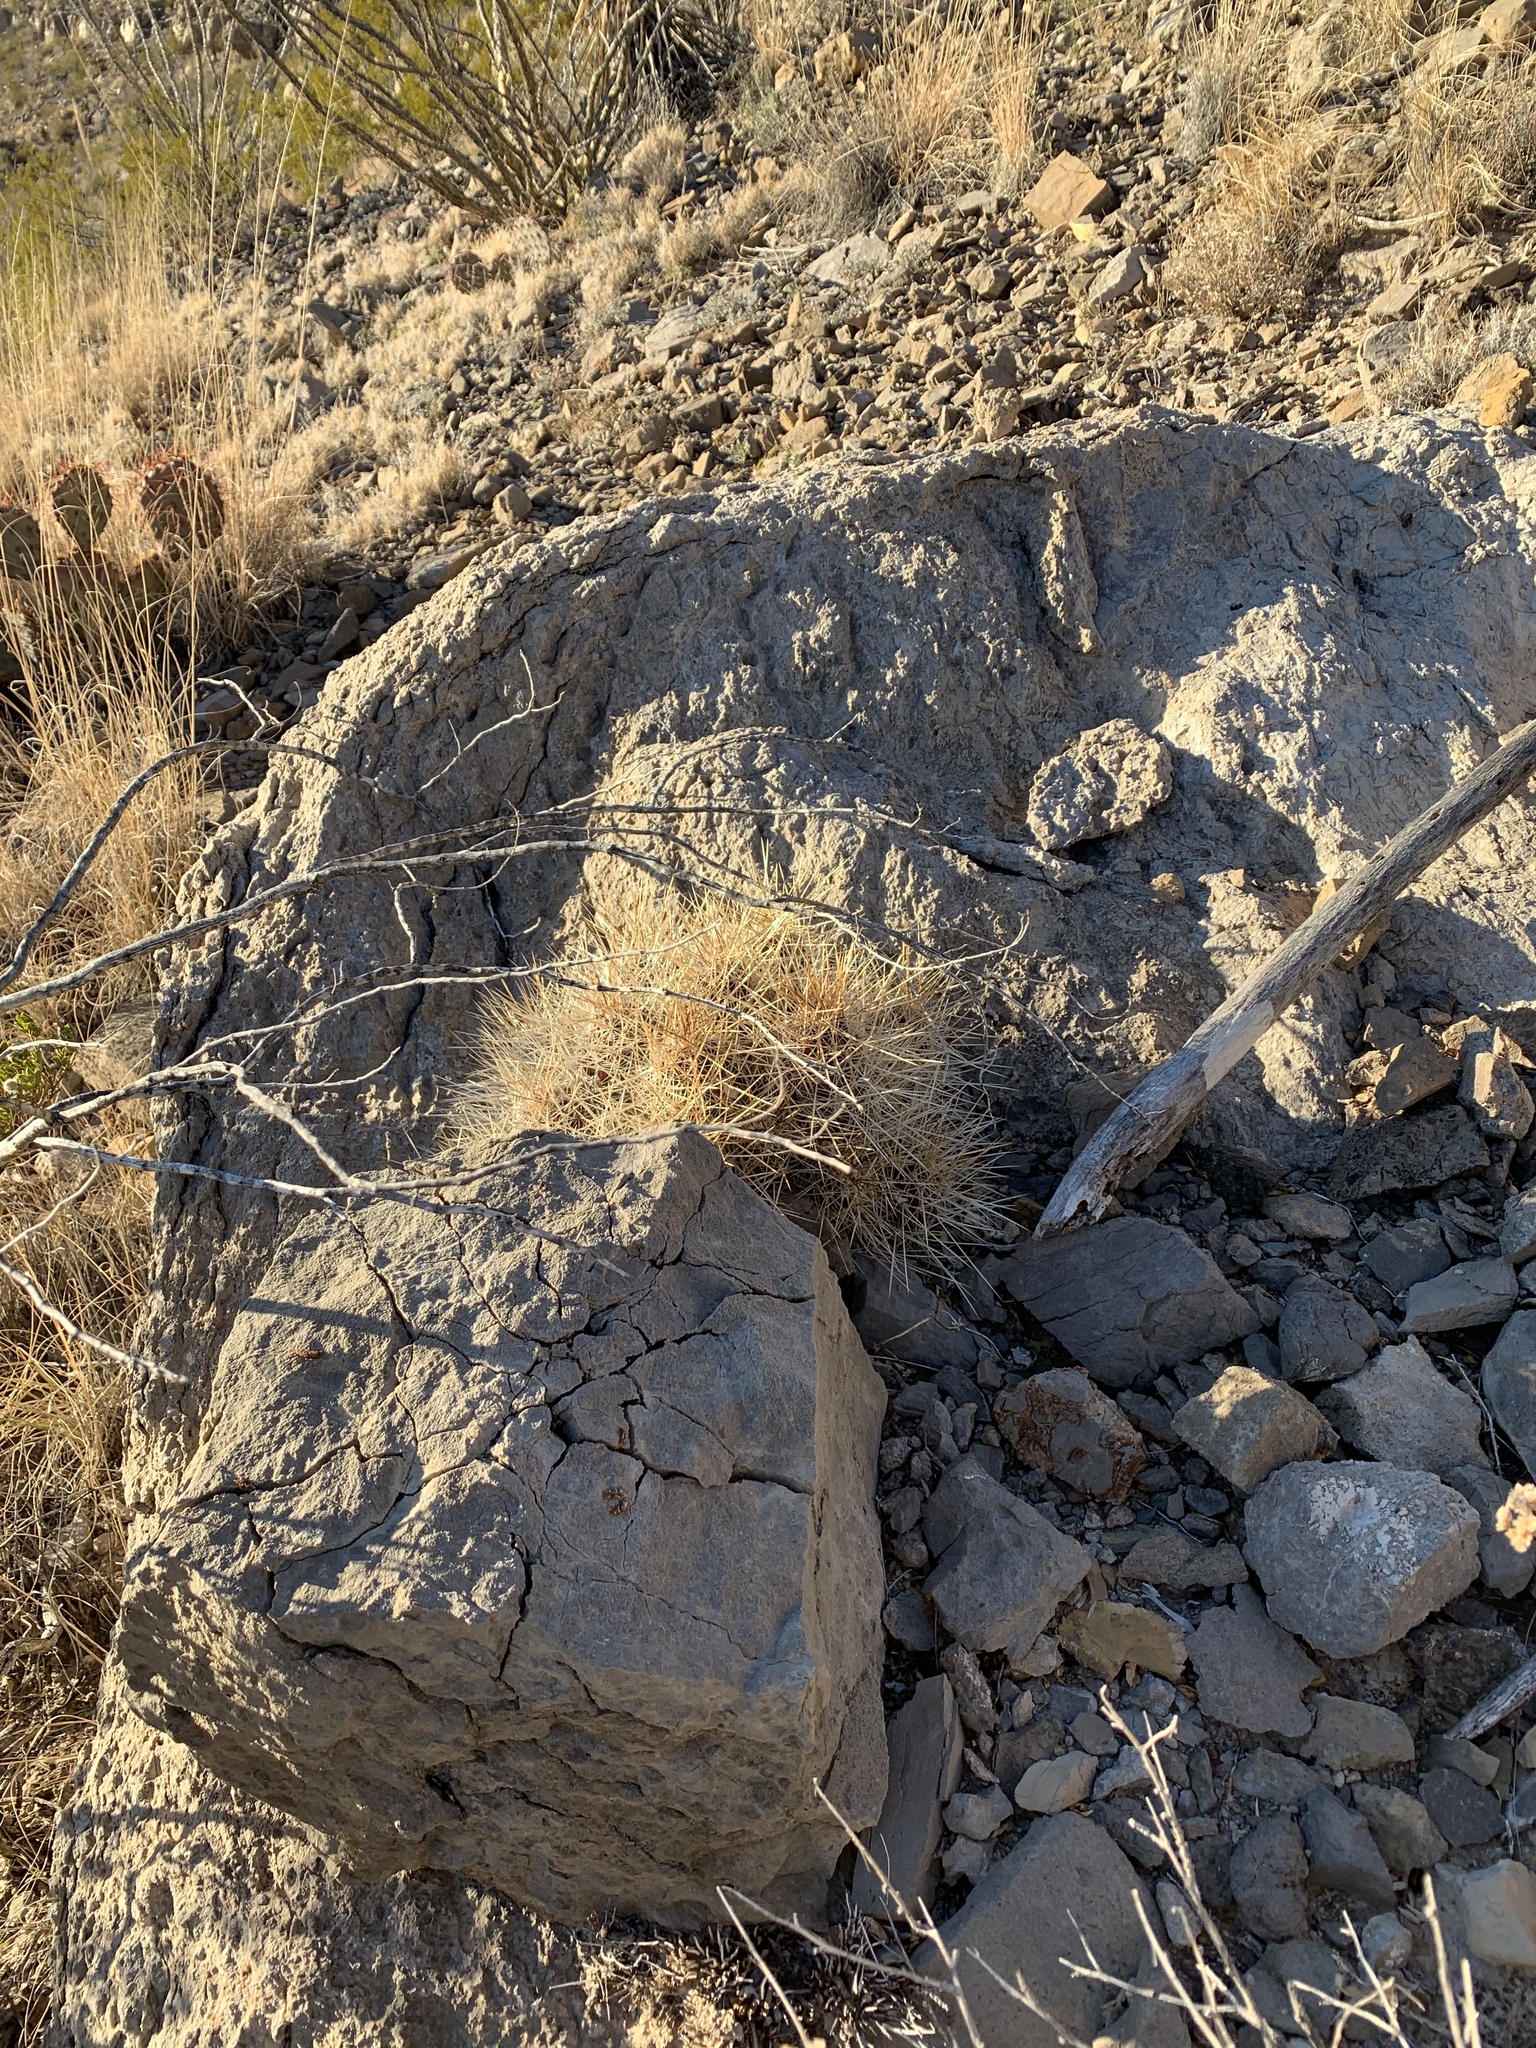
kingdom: Plantae
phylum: Tracheophyta
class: Magnoliopsida
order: Caryophyllales
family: Cactaceae
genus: Echinocereus
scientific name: Echinocereus stramineus
